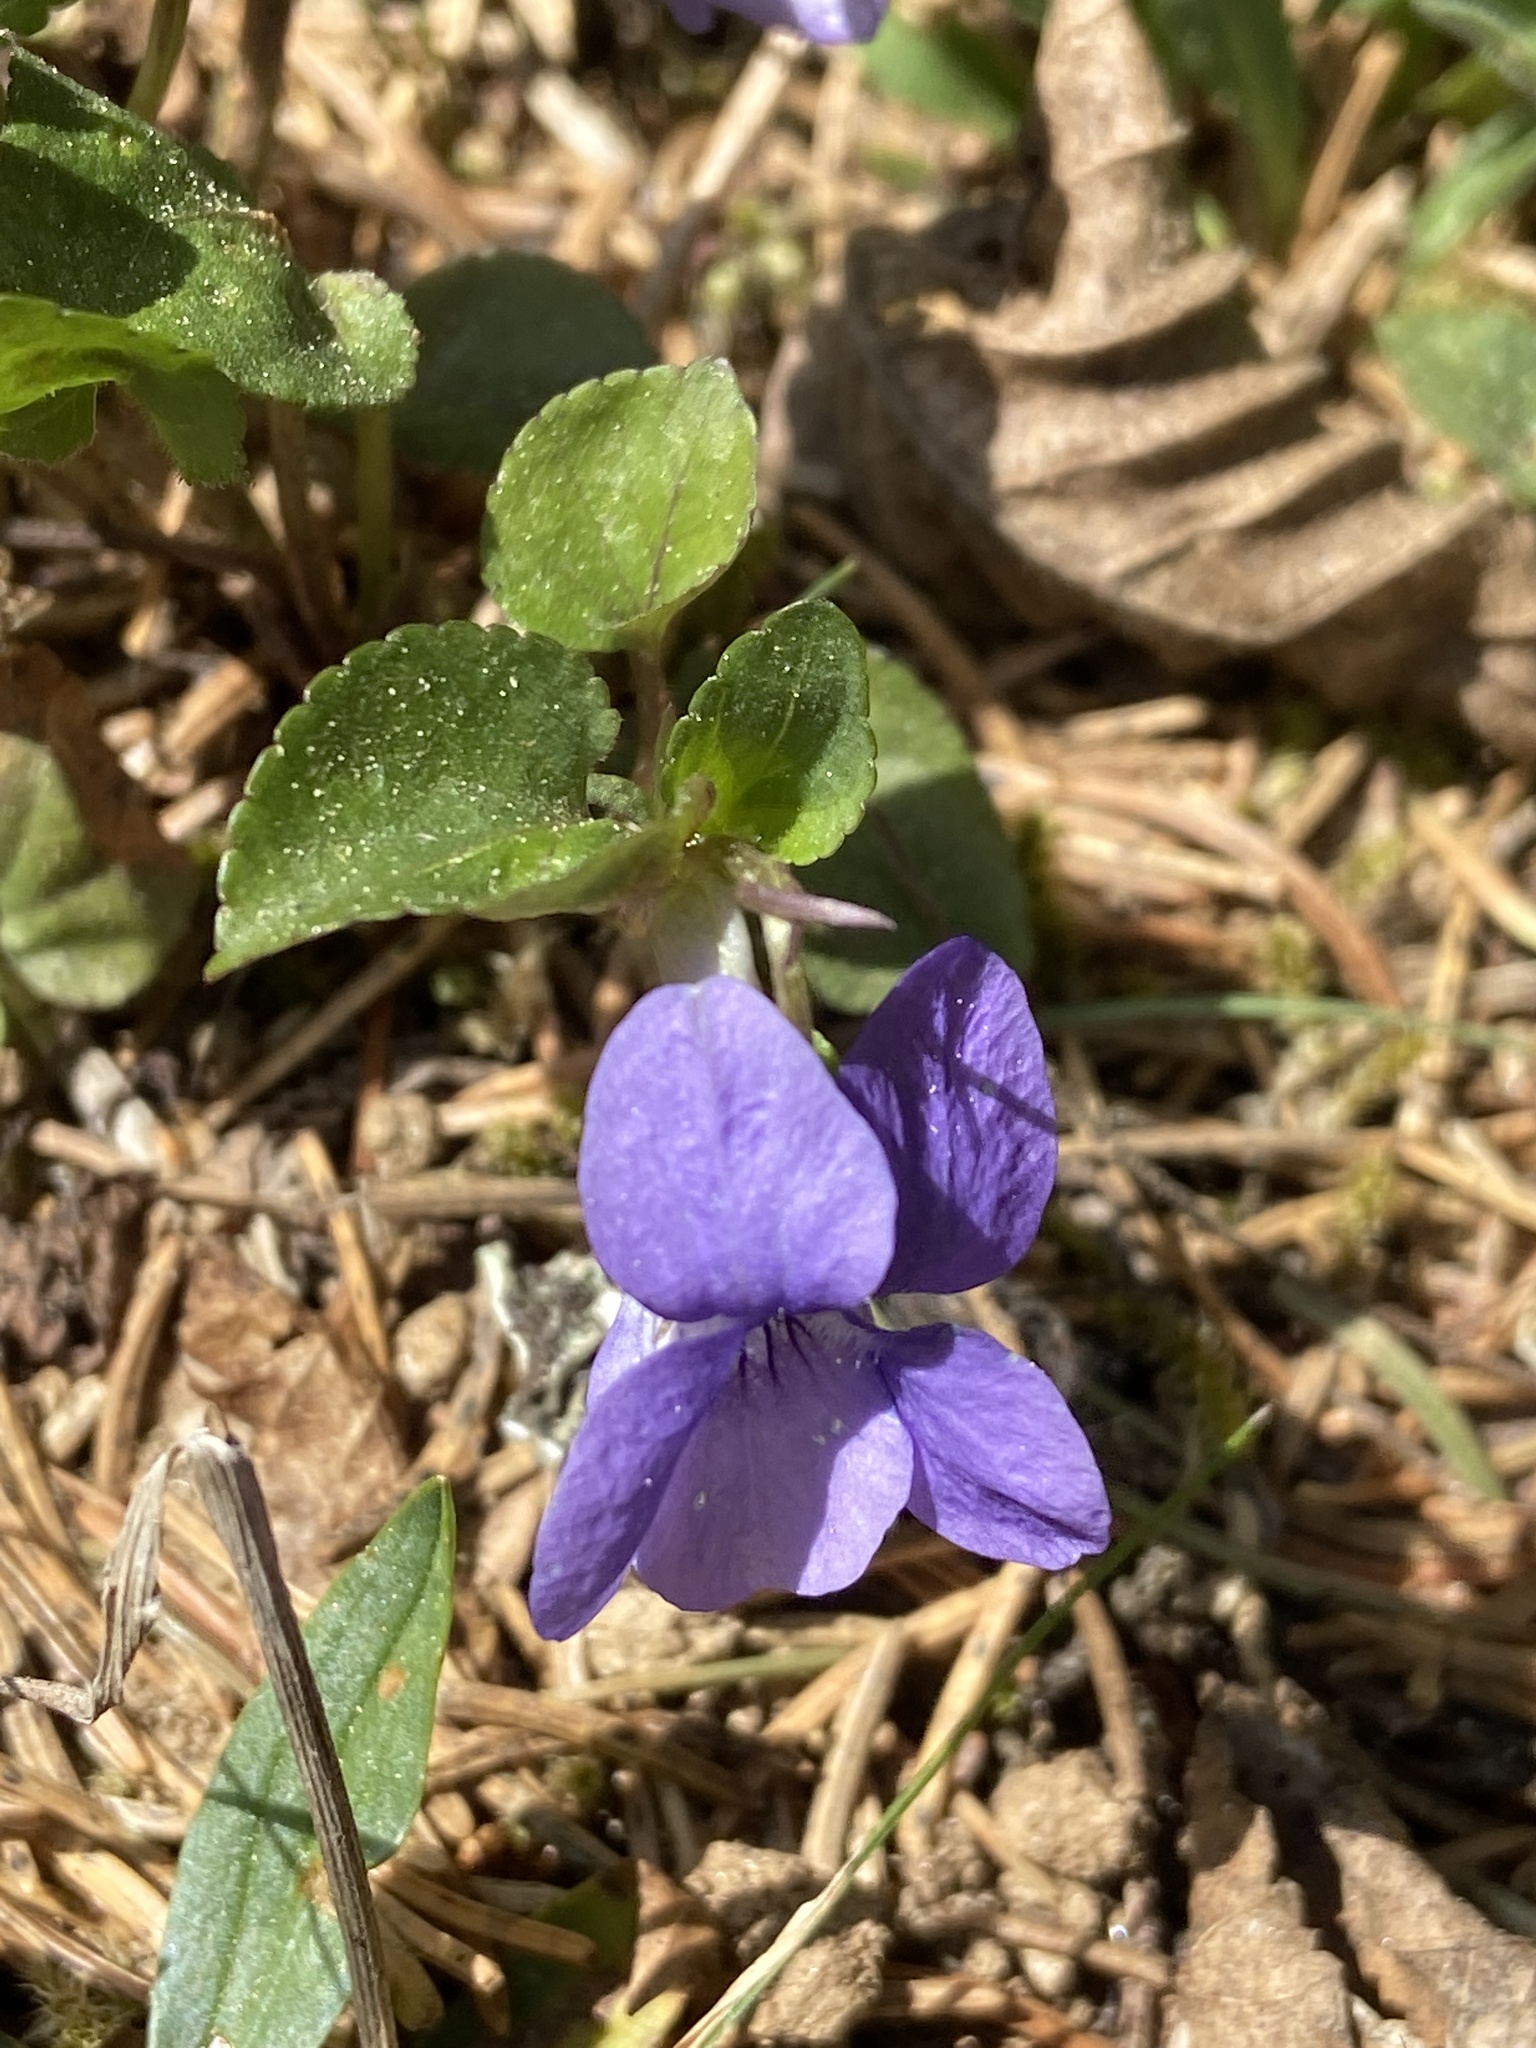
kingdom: Plantae
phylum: Tracheophyta
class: Magnoliopsida
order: Malpighiales
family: Violaceae
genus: Viola
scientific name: Viola riviniana
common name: Common dog-violet
